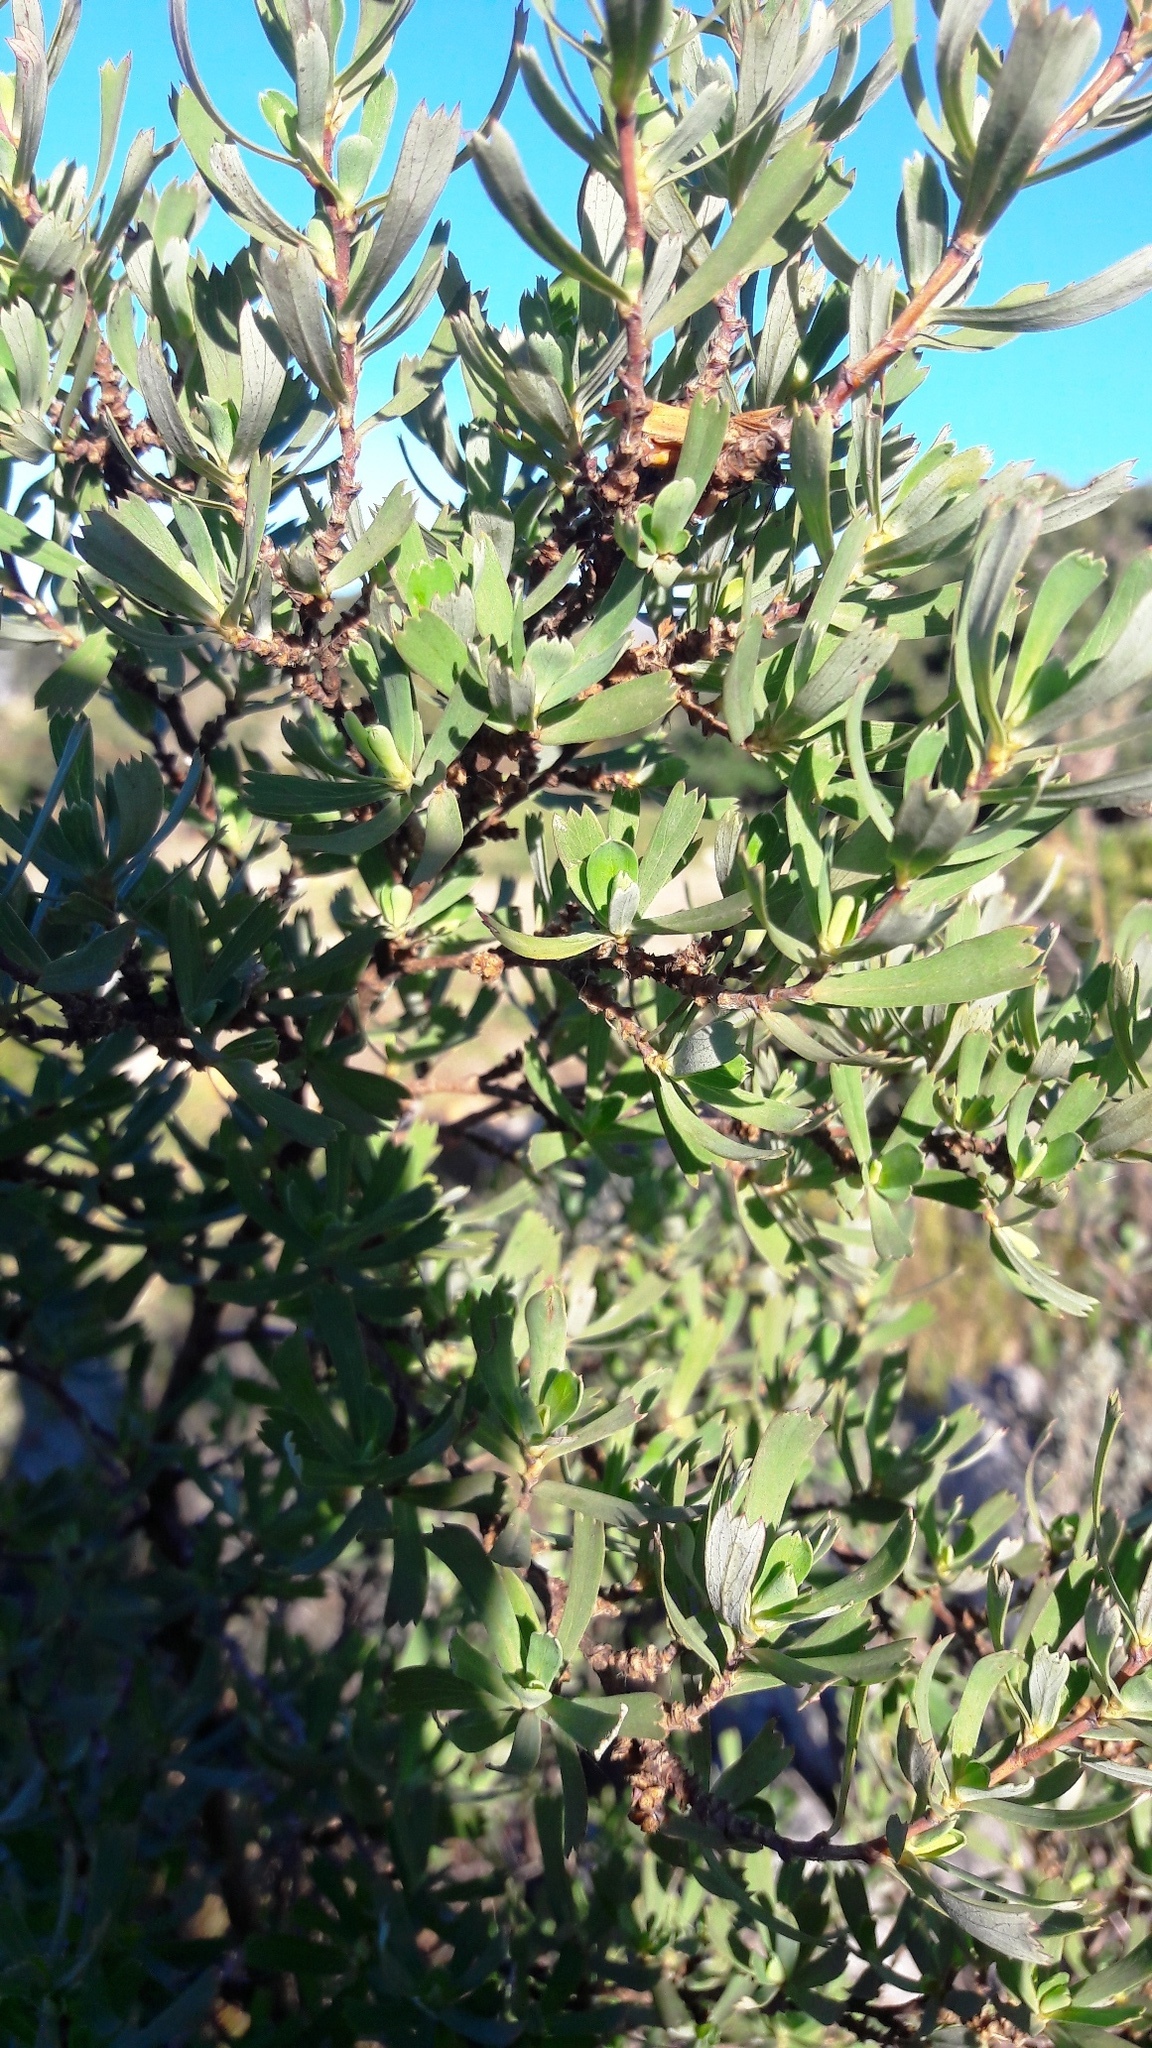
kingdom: Plantae
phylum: Tracheophyta
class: Magnoliopsida
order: Rosales
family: Rosaceae
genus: Cliffortia
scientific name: Cliffortia cuneata
